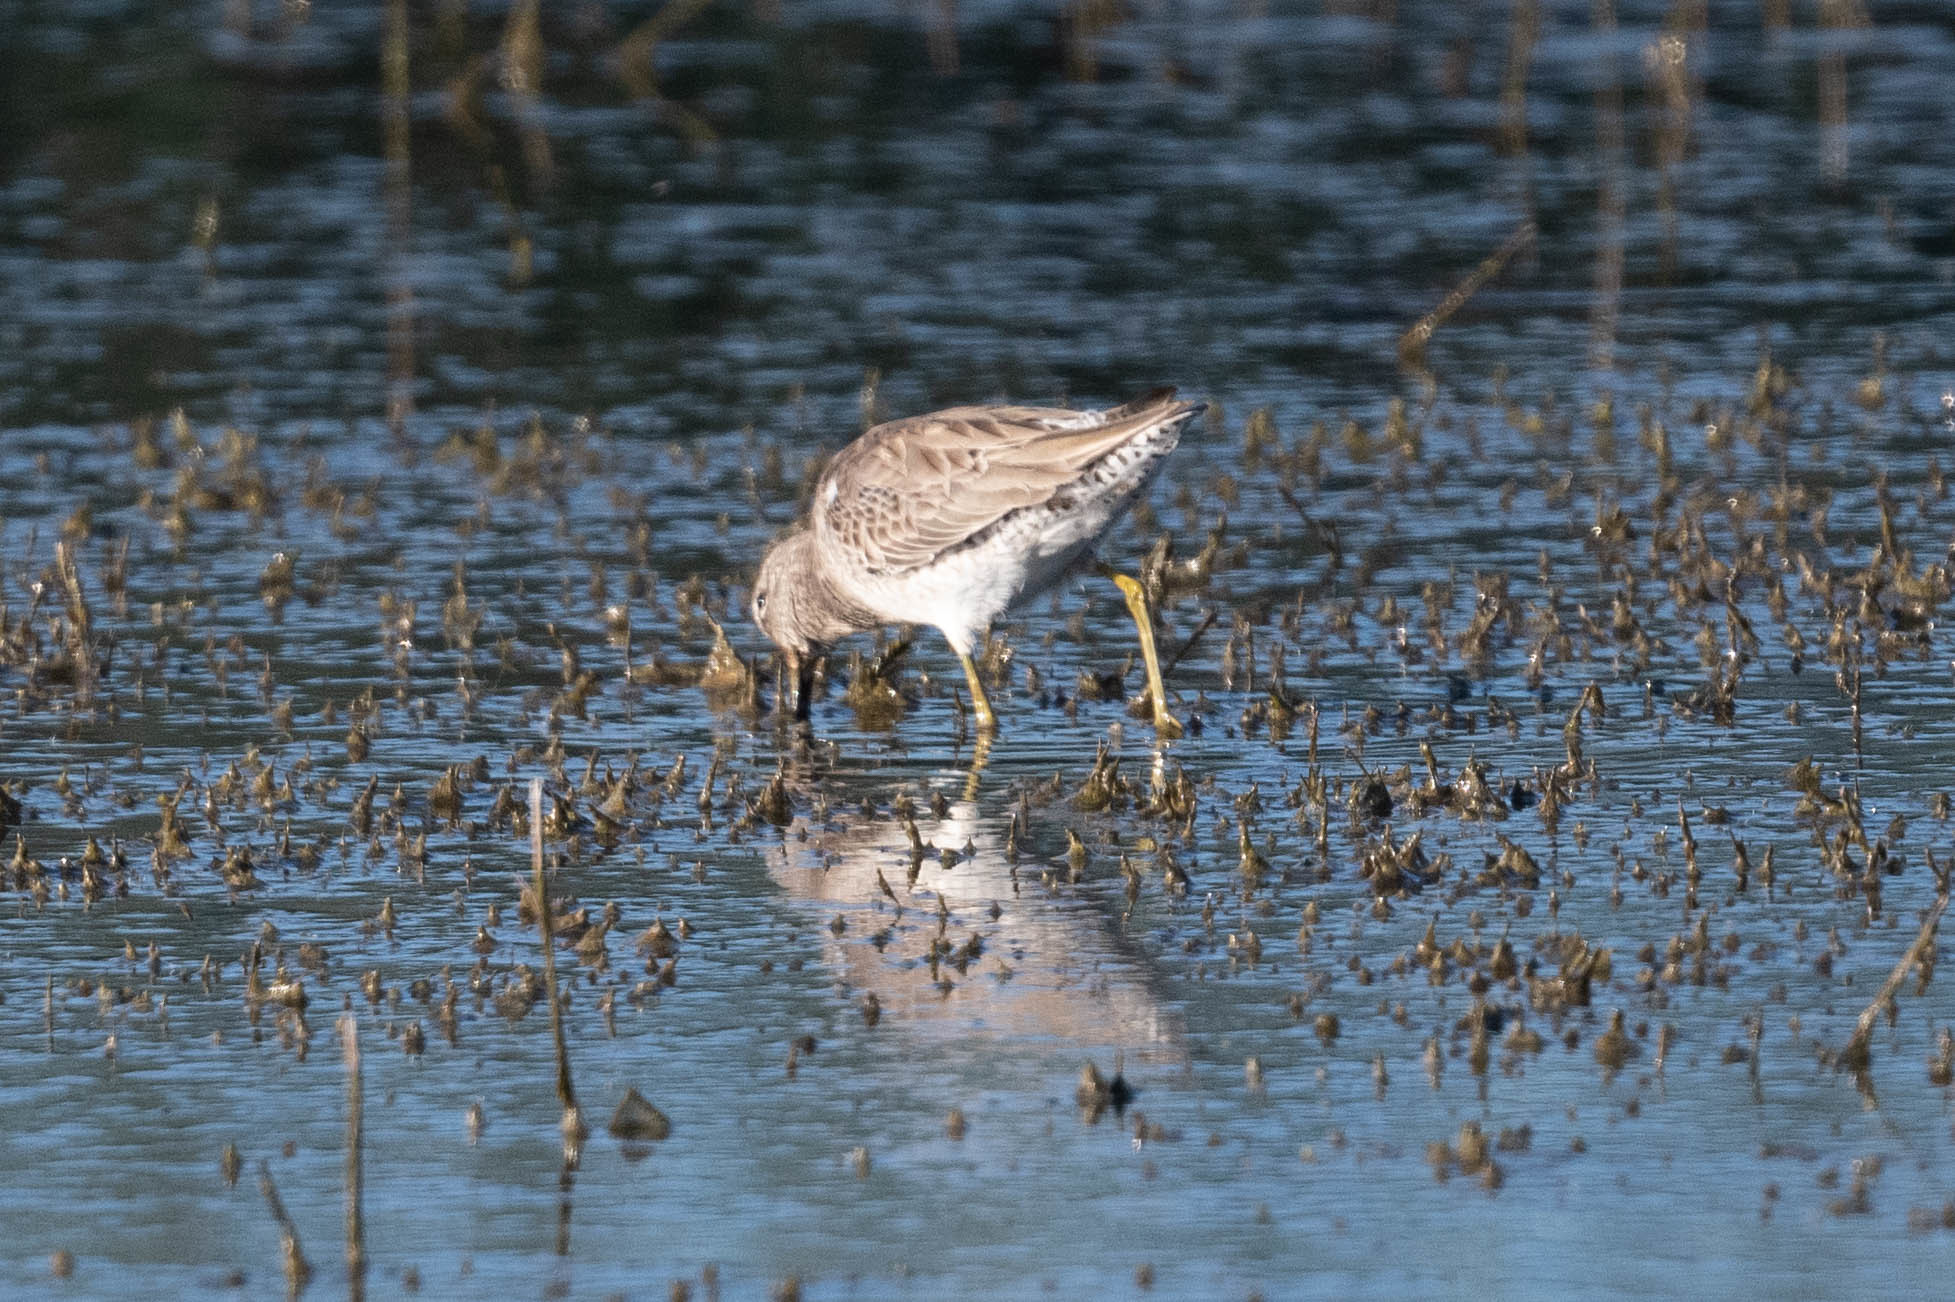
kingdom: Animalia
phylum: Chordata
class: Aves
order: Charadriiformes
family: Scolopacidae
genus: Limnodromus
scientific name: Limnodromus scolopaceus
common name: Long-billed dowitcher
